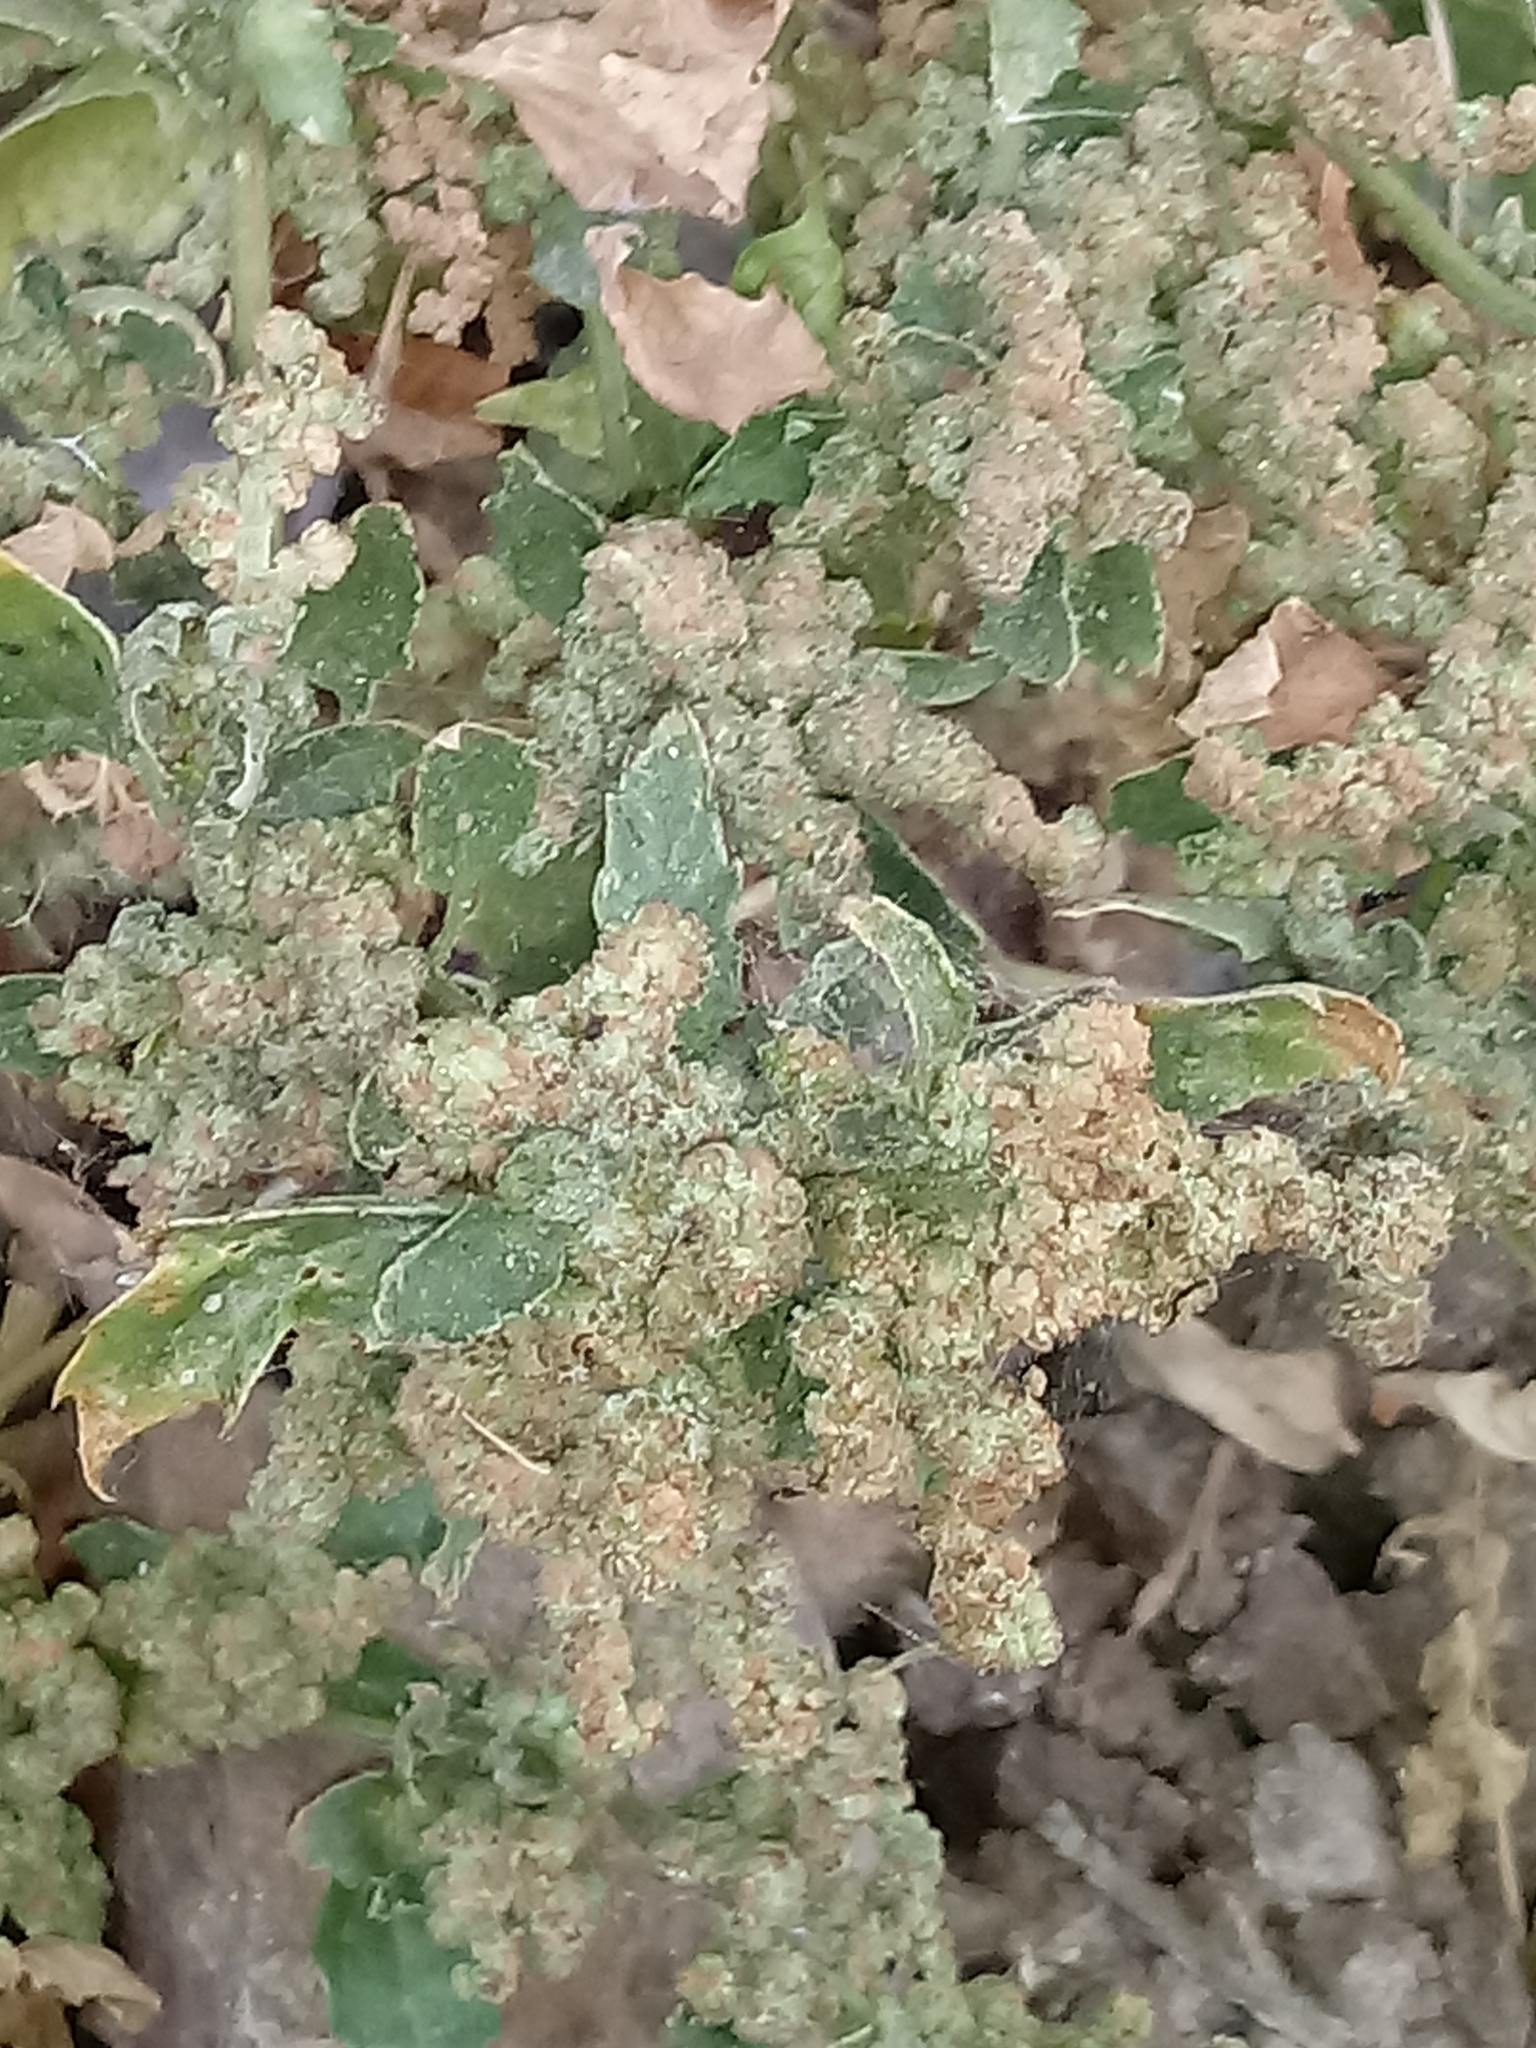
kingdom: Plantae
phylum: Tracheophyta
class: Magnoliopsida
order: Caryophyllales
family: Amaranthaceae
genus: Chenopodiastrum
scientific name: Chenopodiastrum murale
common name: Sowbane
